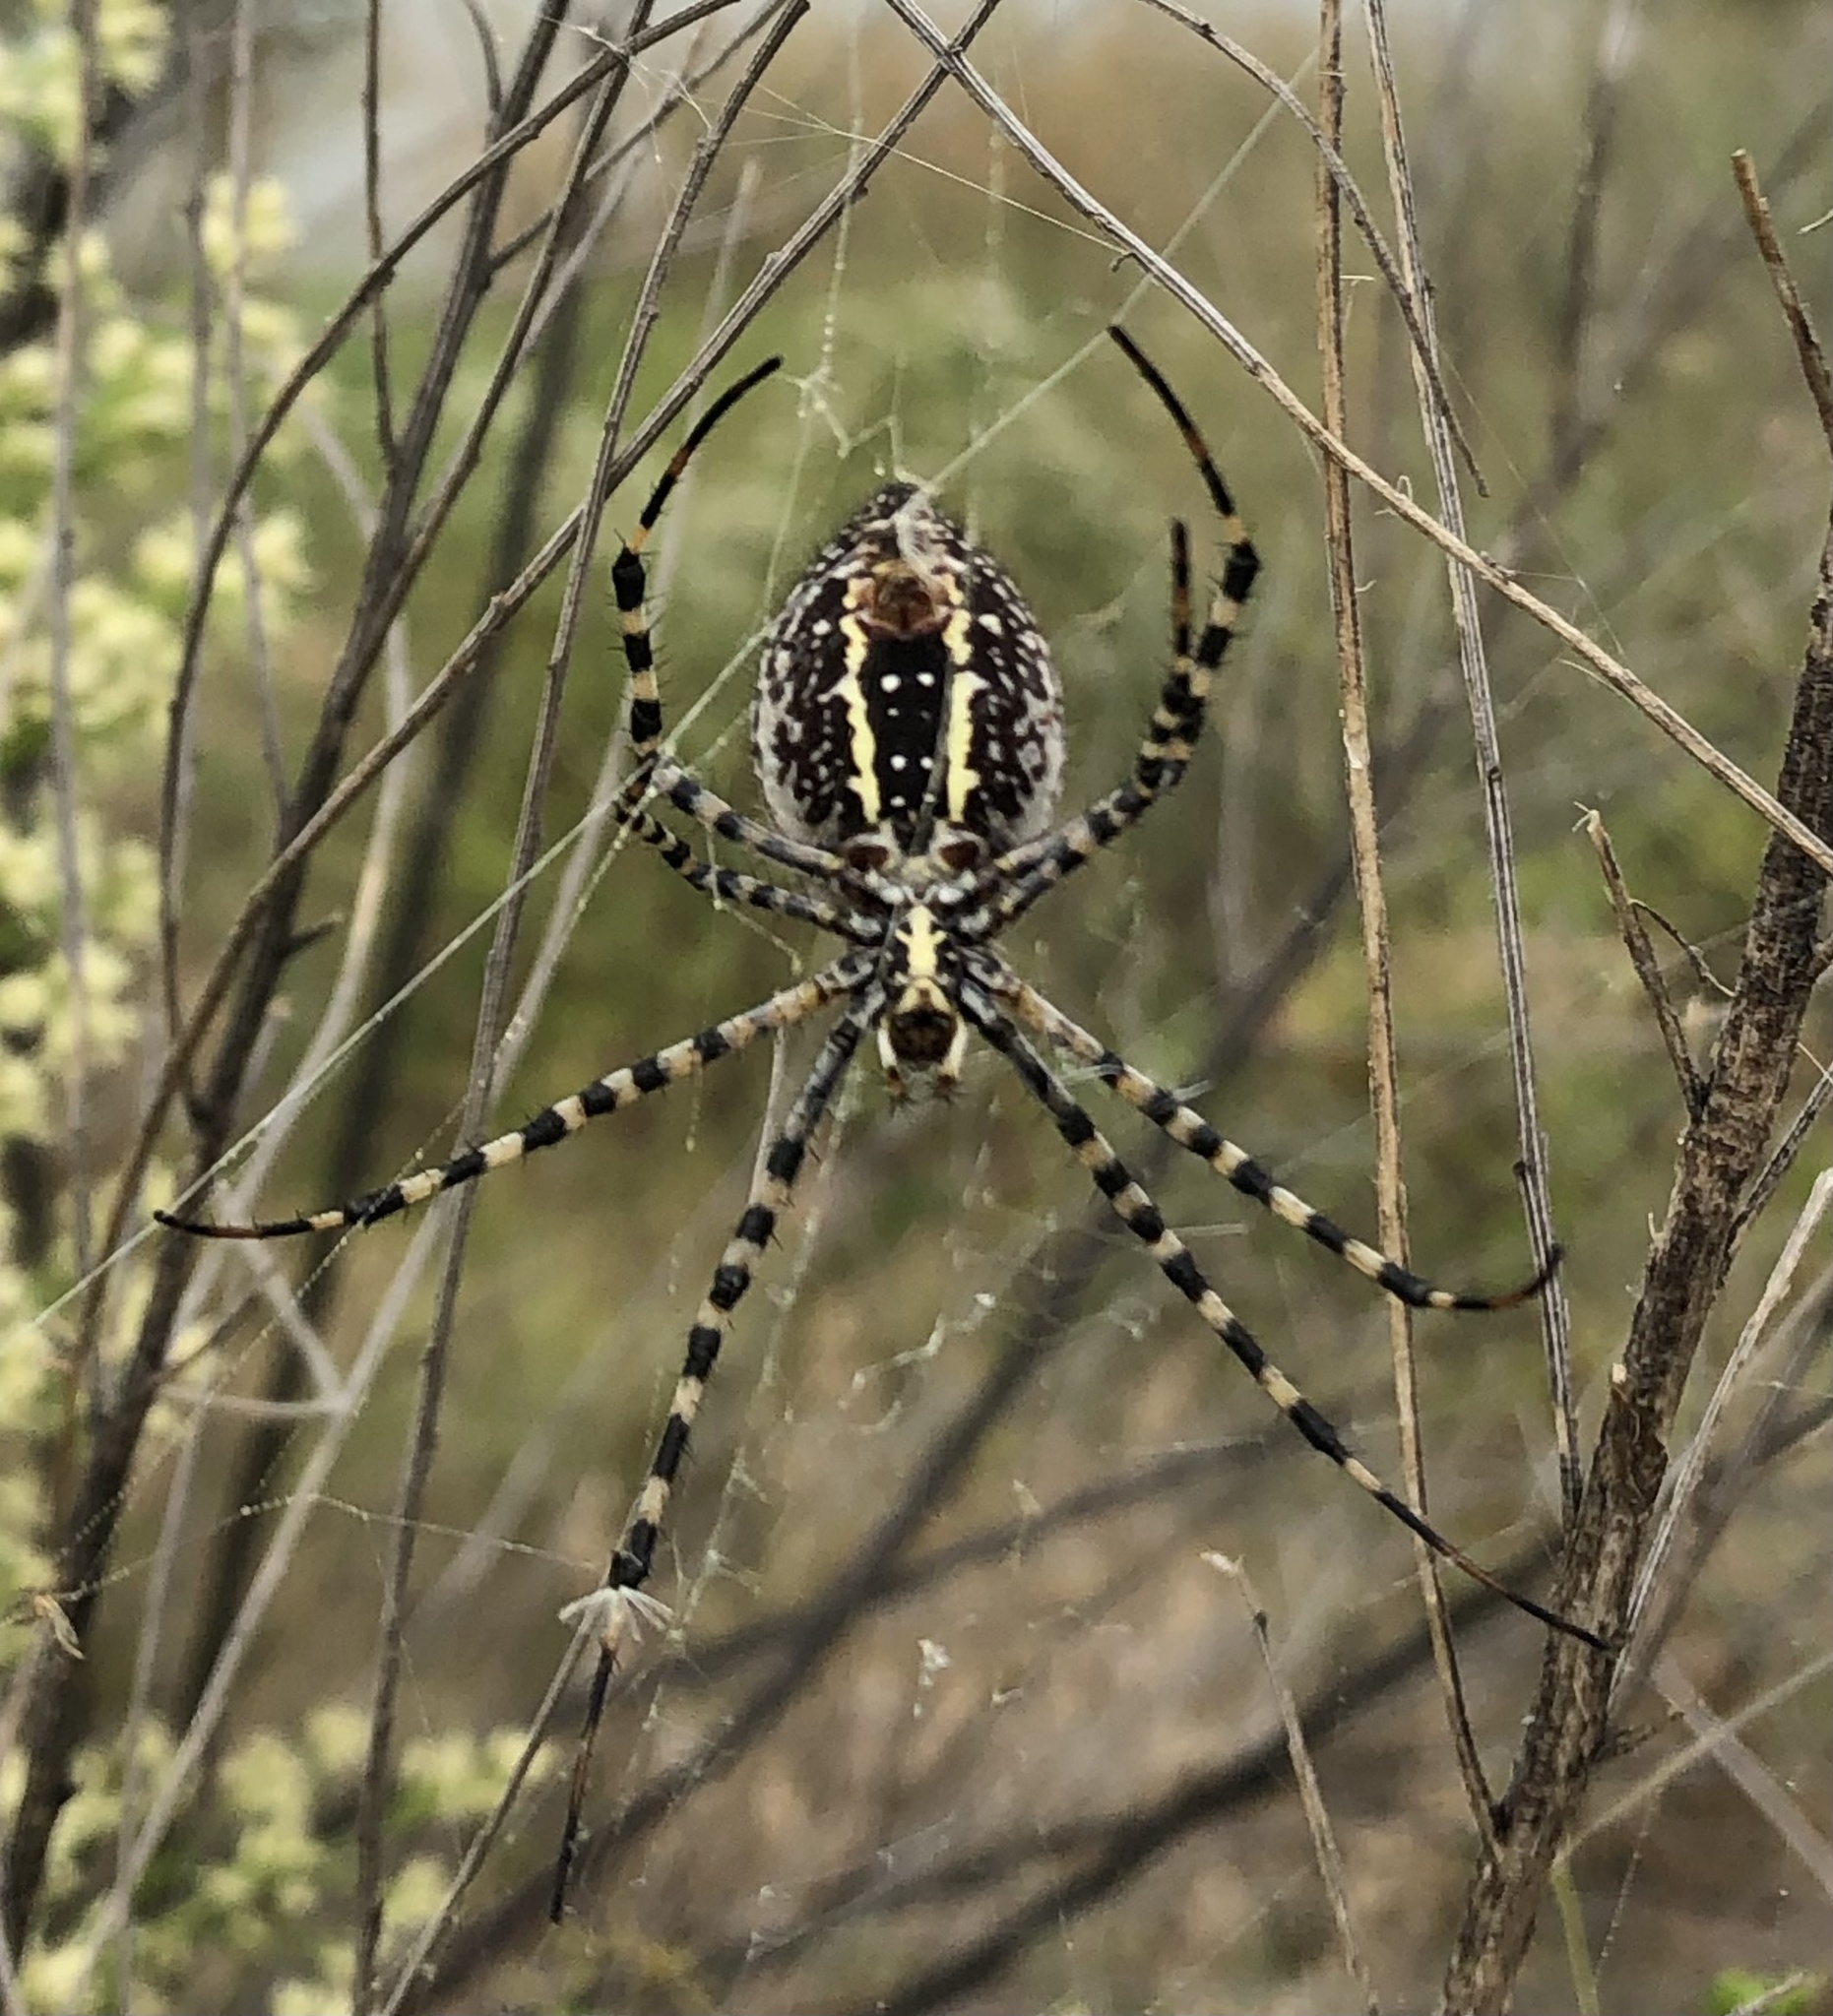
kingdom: Animalia
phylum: Arthropoda
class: Arachnida
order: Araneae
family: Araneidae
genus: Argiope
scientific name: Argiope trifasciata
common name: Banded garden spider
